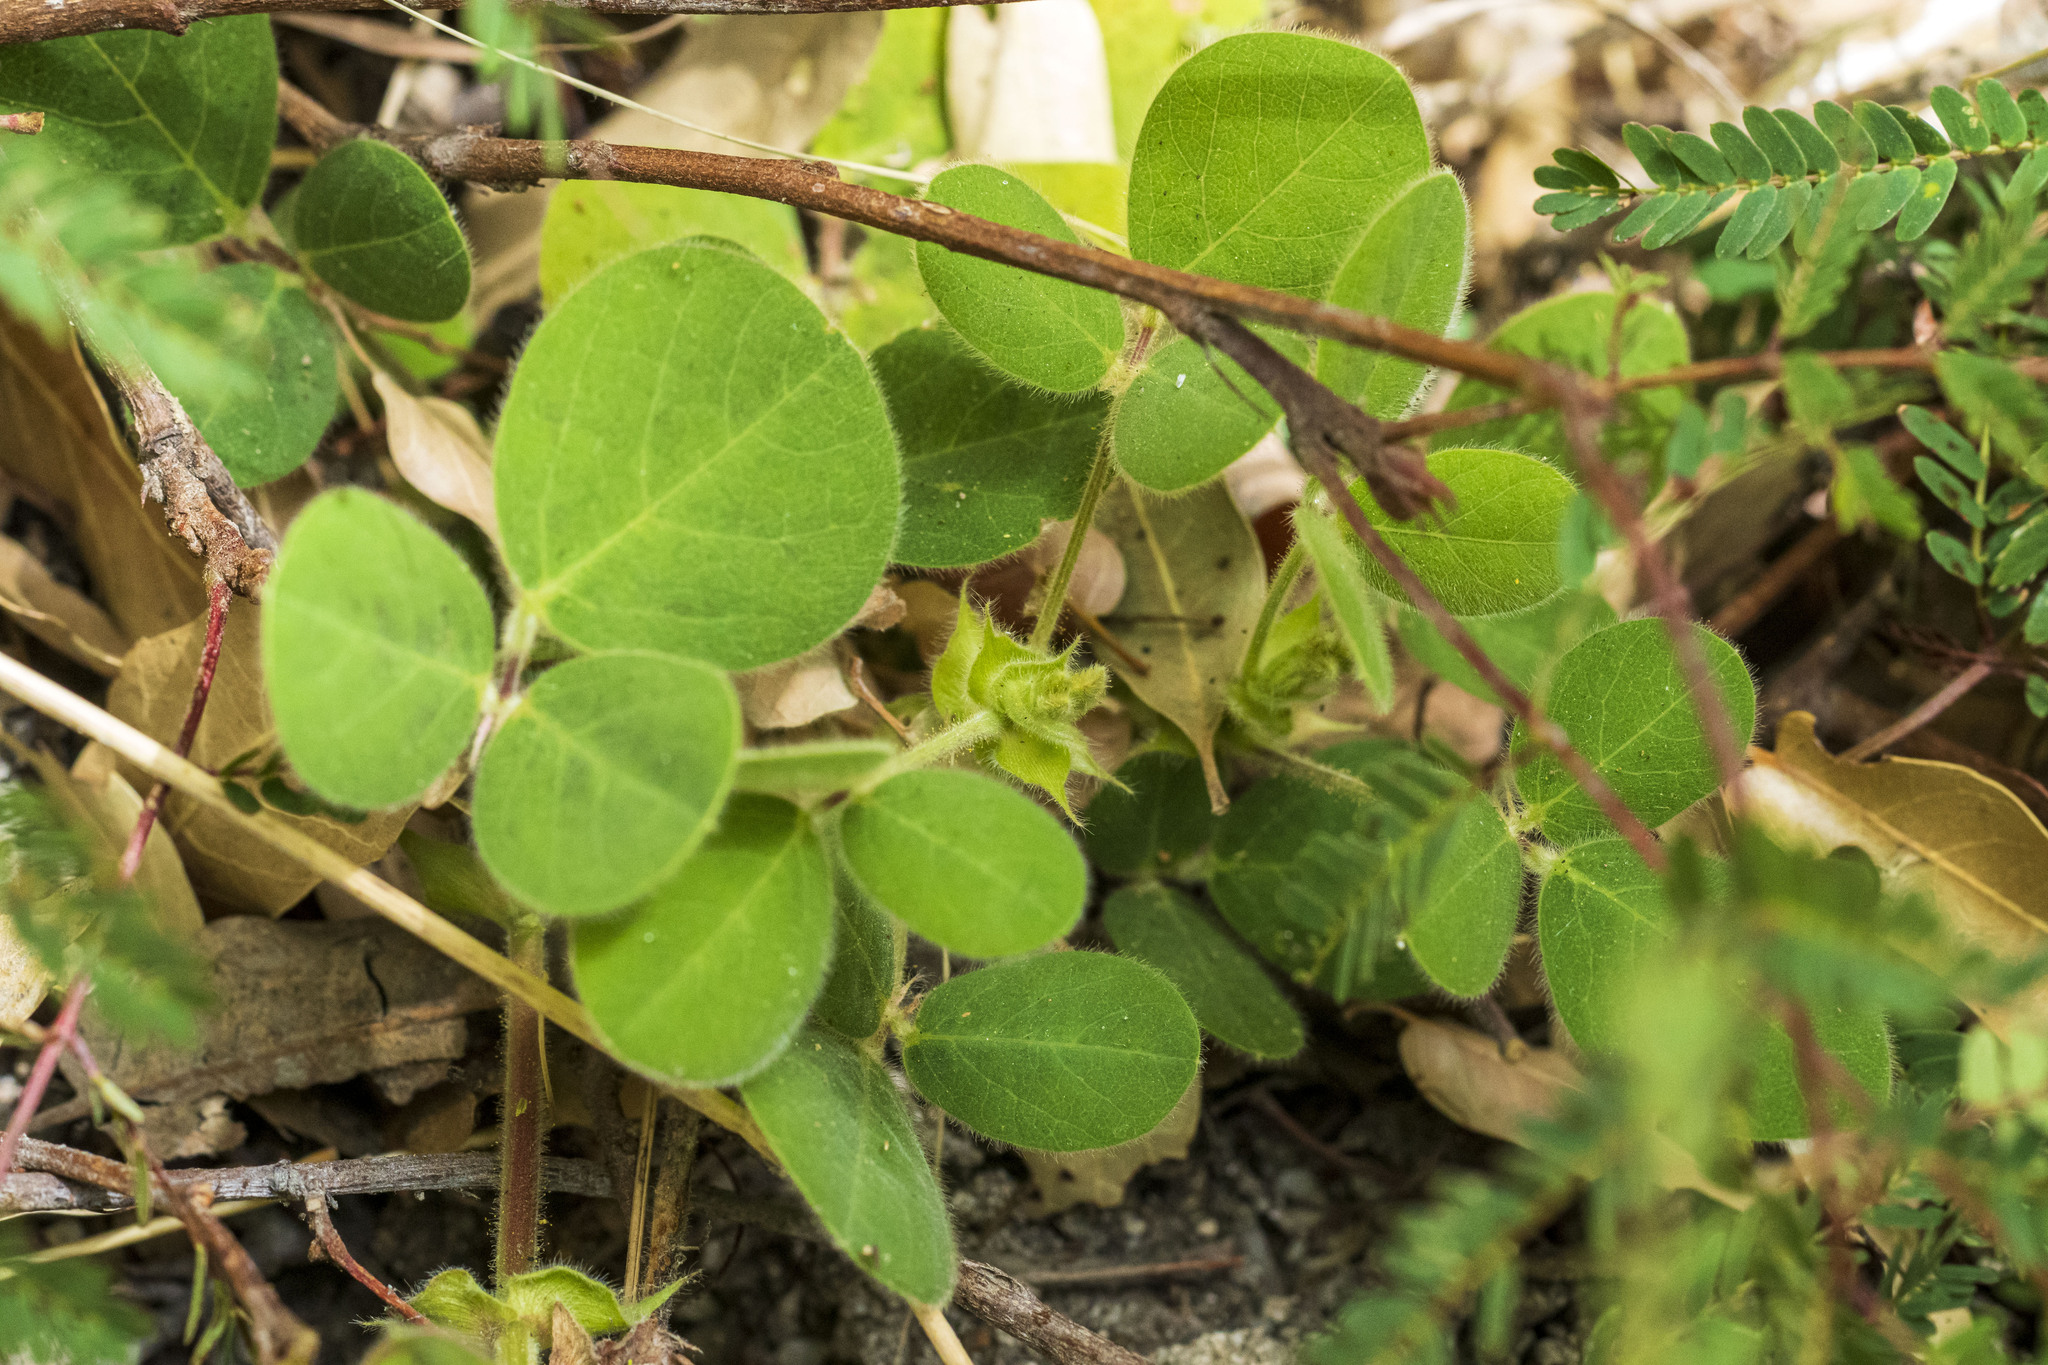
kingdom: Plantae
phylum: Tracheophyta
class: Magnoliopsida
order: Fabales
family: Fabaceae
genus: Desmodium
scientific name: Desmodium prostratum
